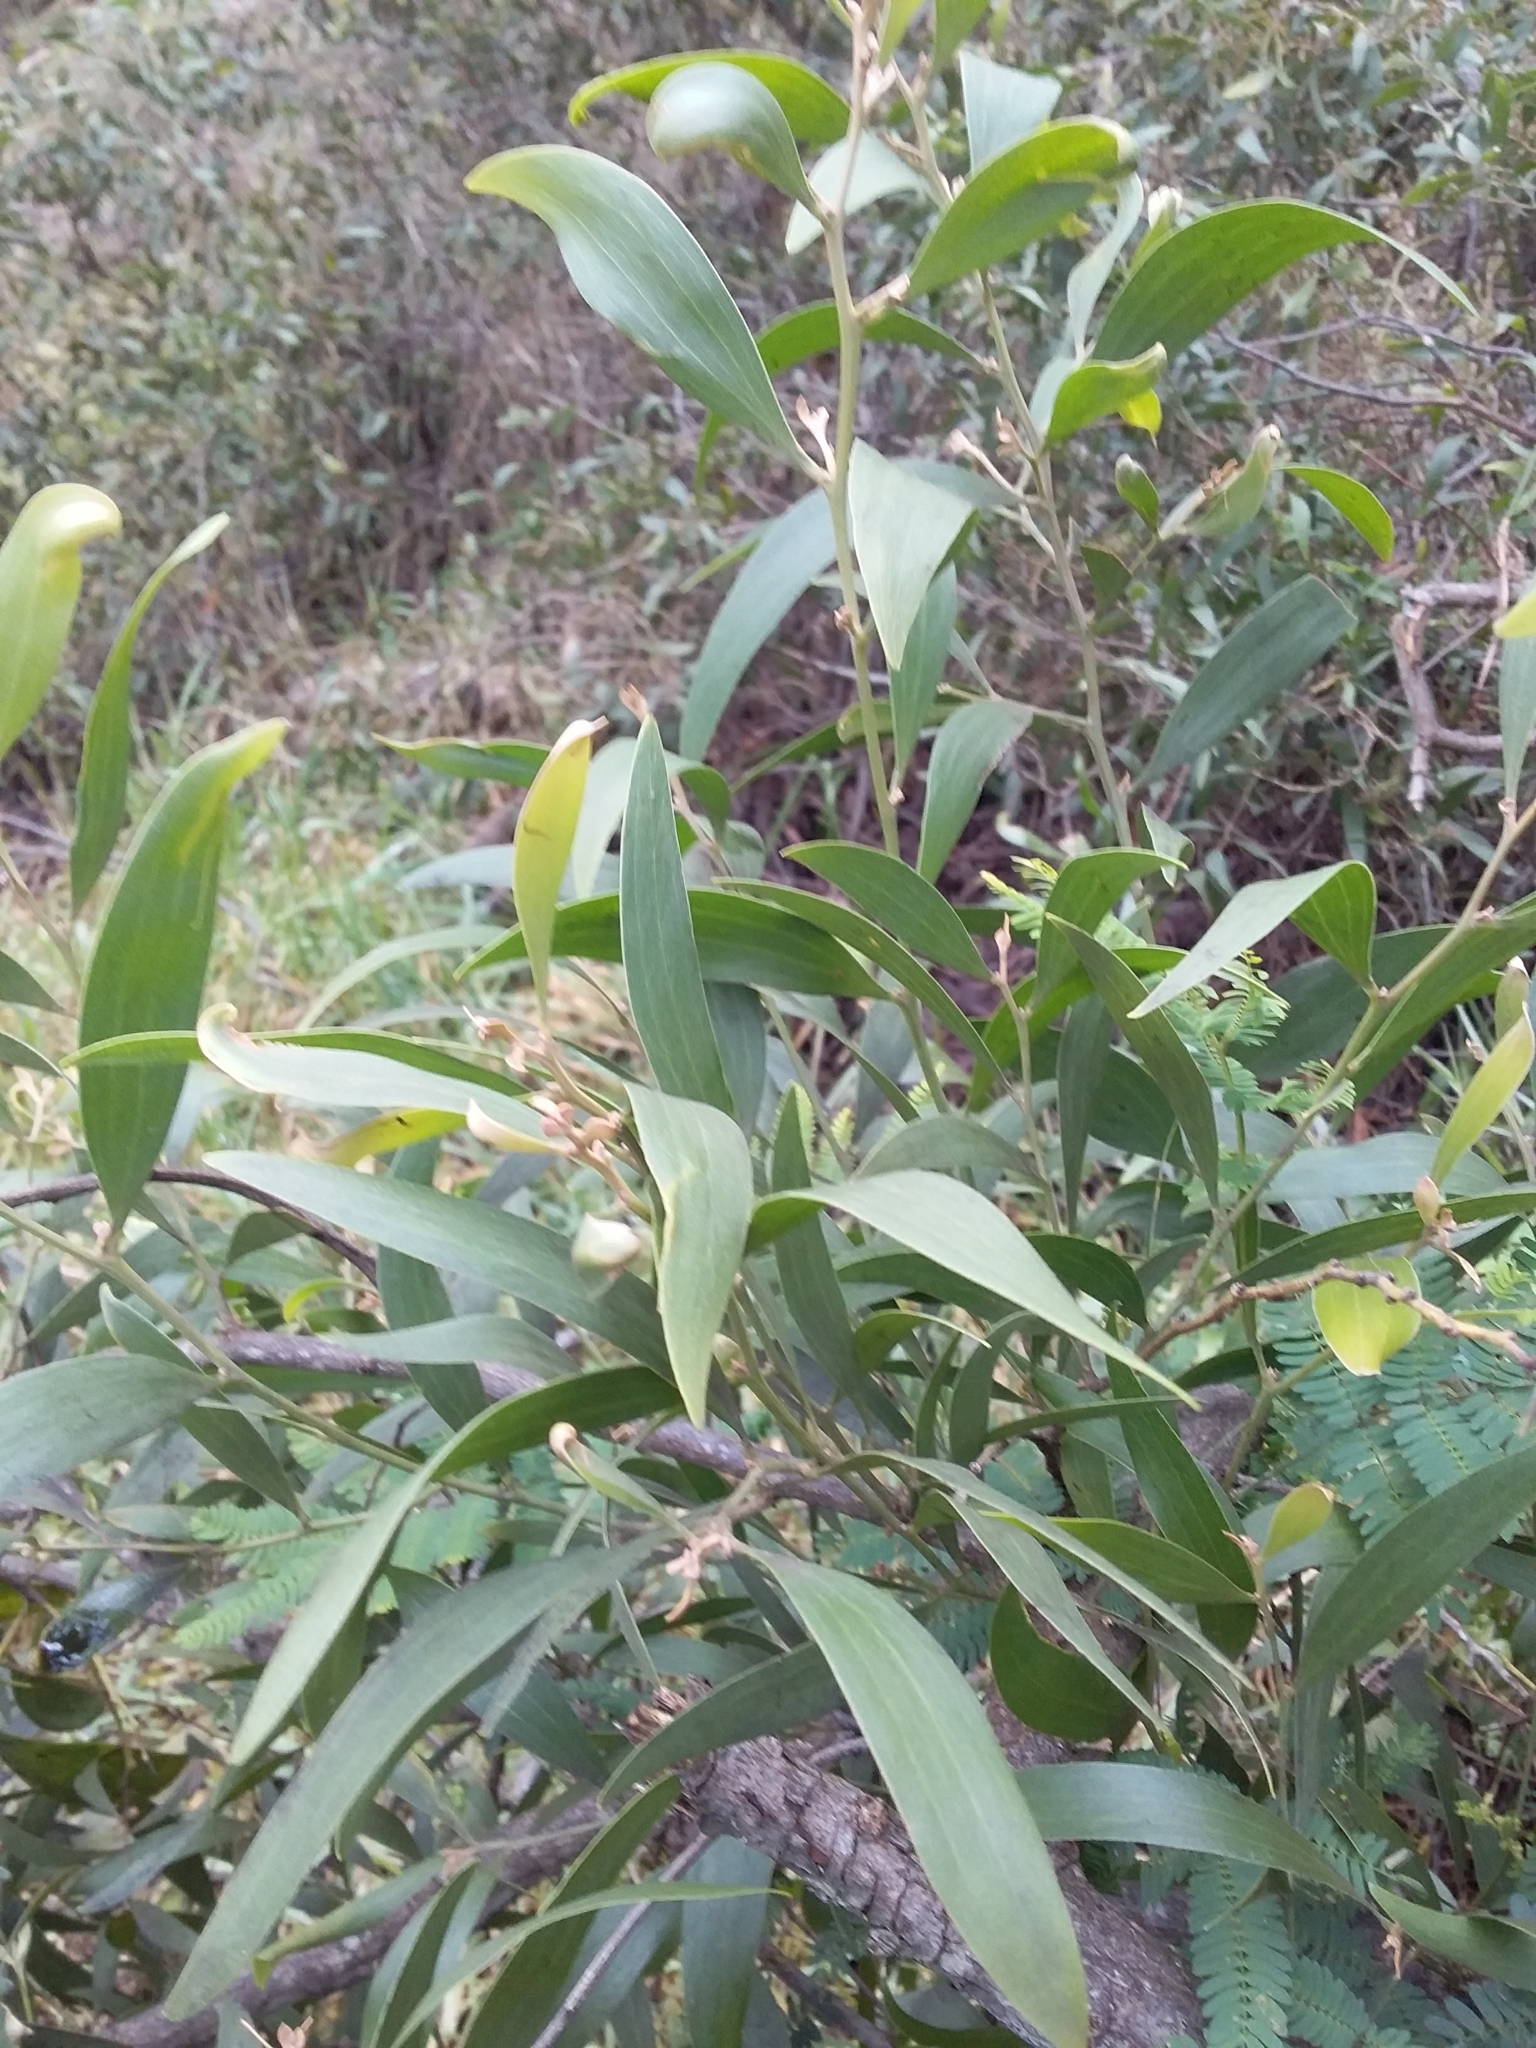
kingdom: Plantae
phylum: Tracheophyta
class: Magnoliopsida
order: Fabales
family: Fabaceae
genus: Acacia
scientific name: Acacia melanoxylon
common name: Blackwood
